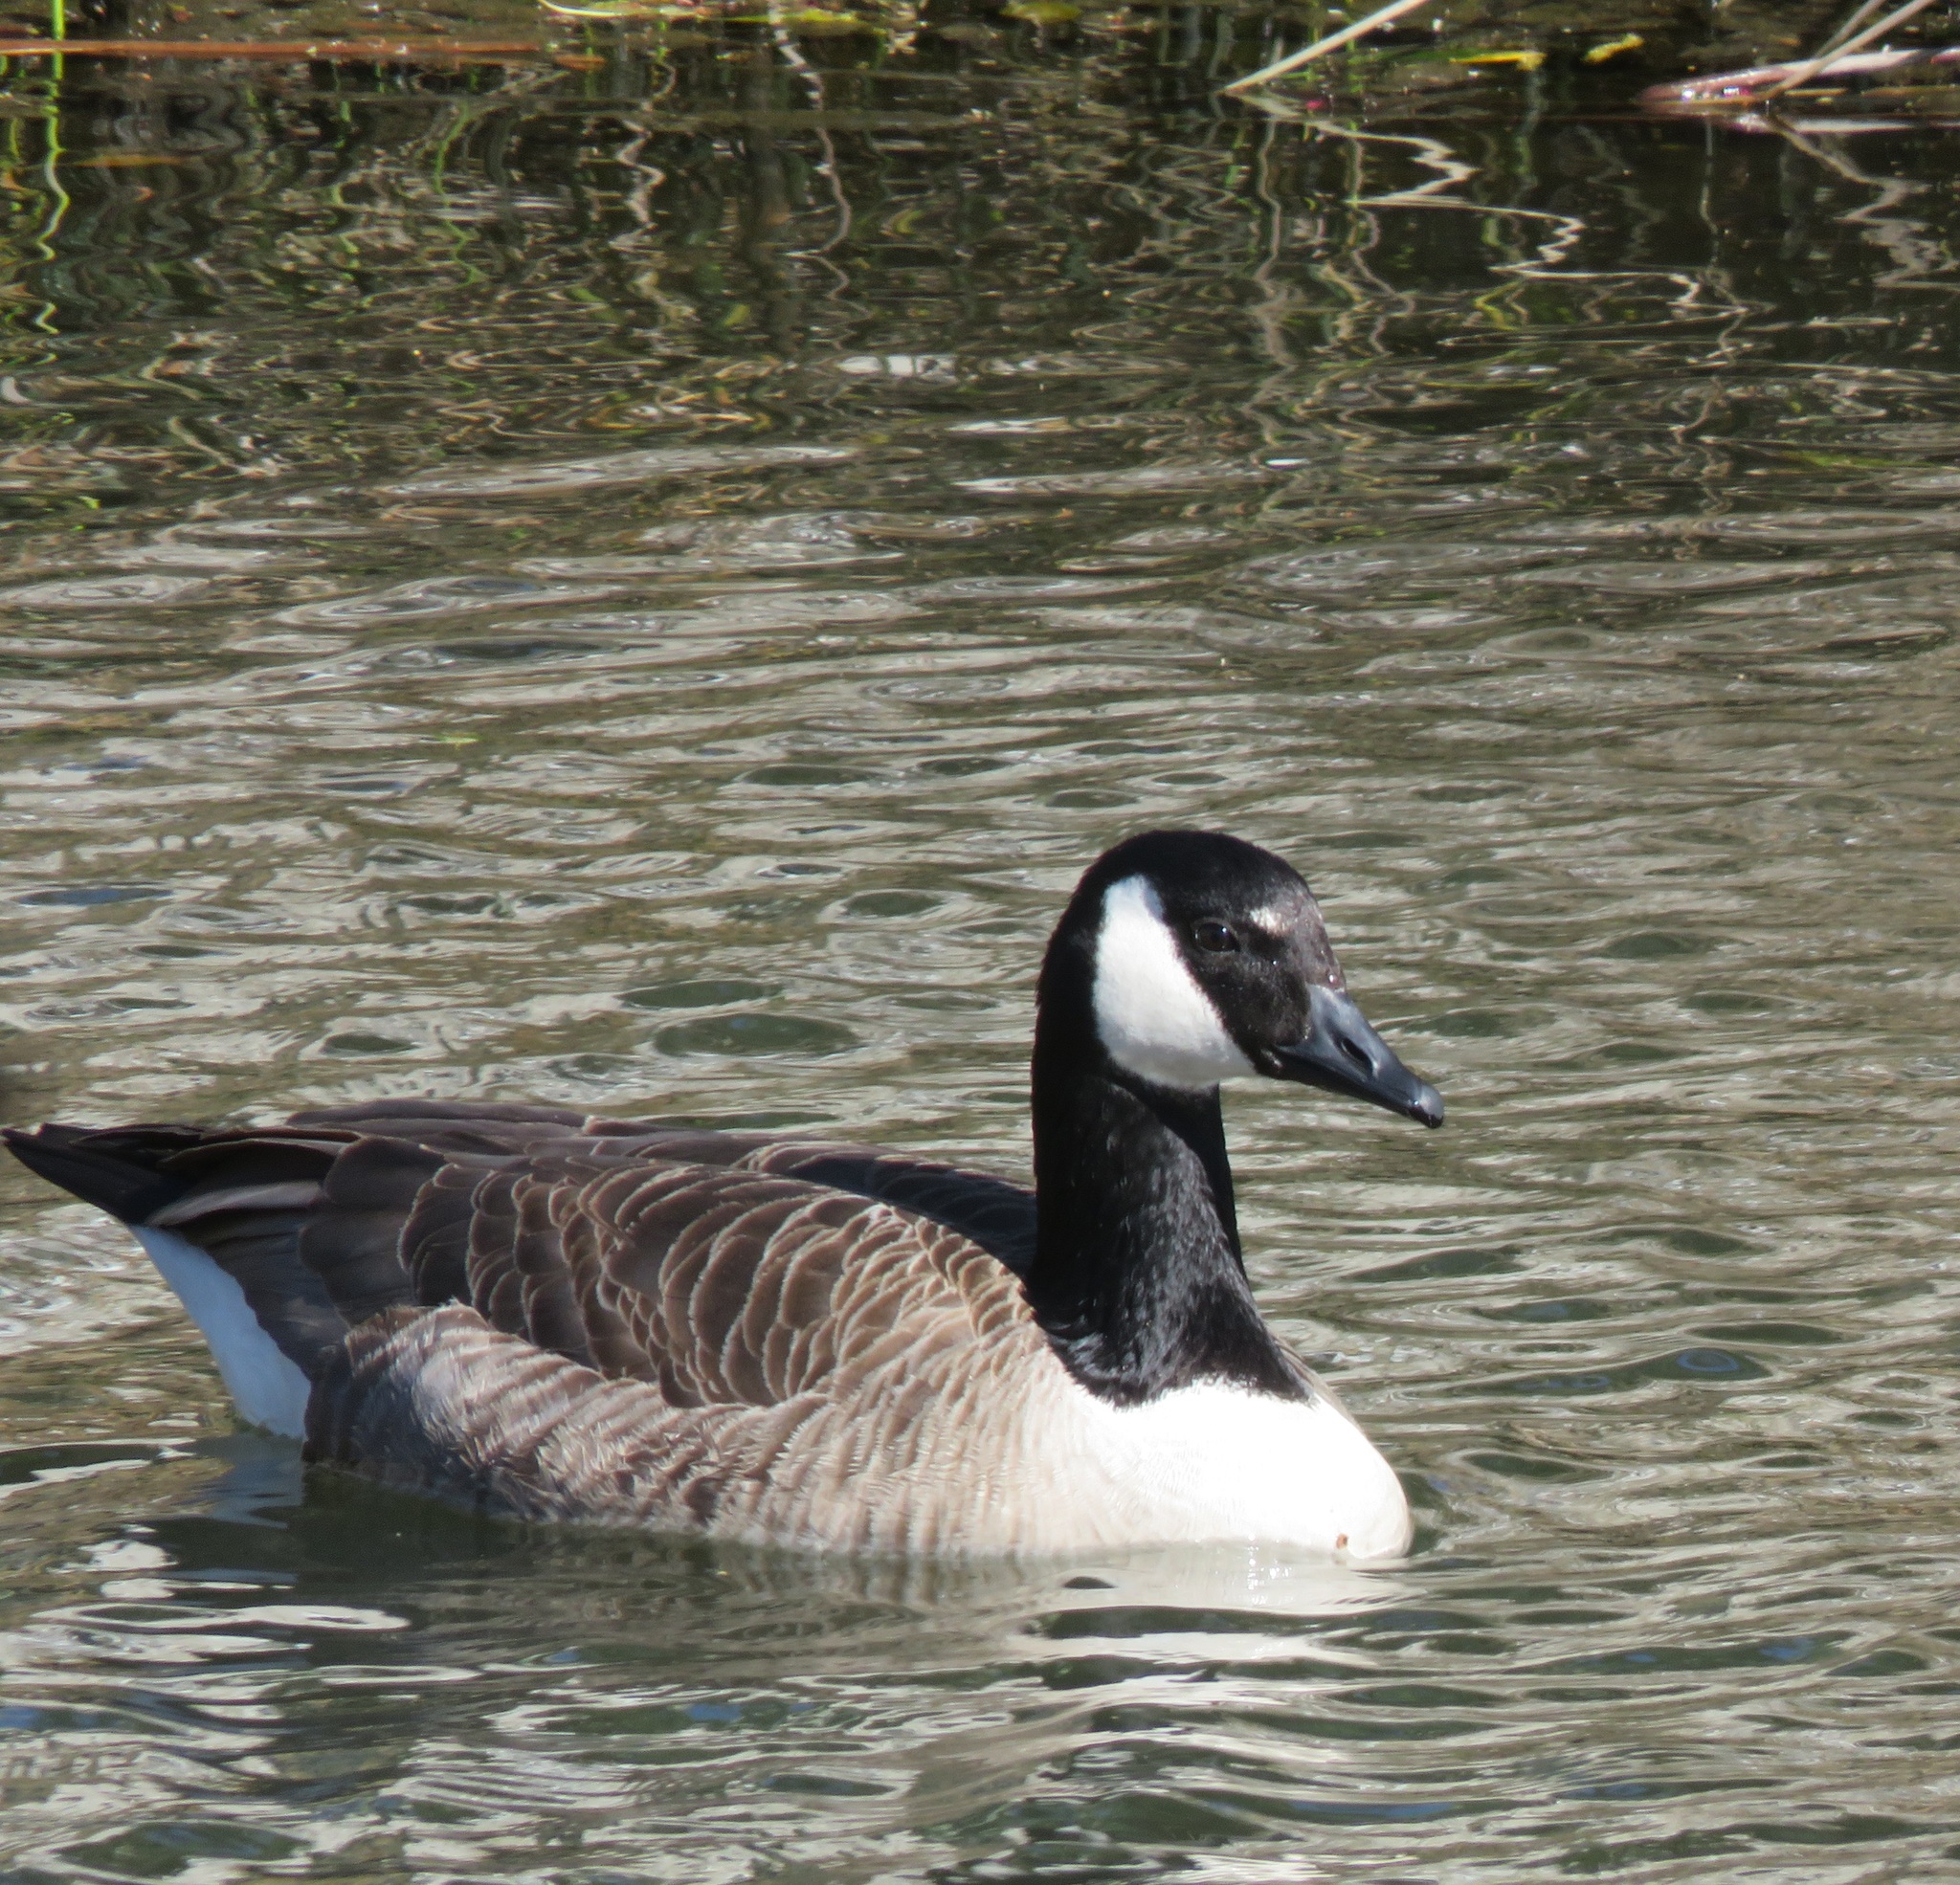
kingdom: Animalia
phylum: Chordata
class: Aves
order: Anseriformes
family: Anatidae
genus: Branta
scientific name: Branta canadensis
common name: Canada goose
